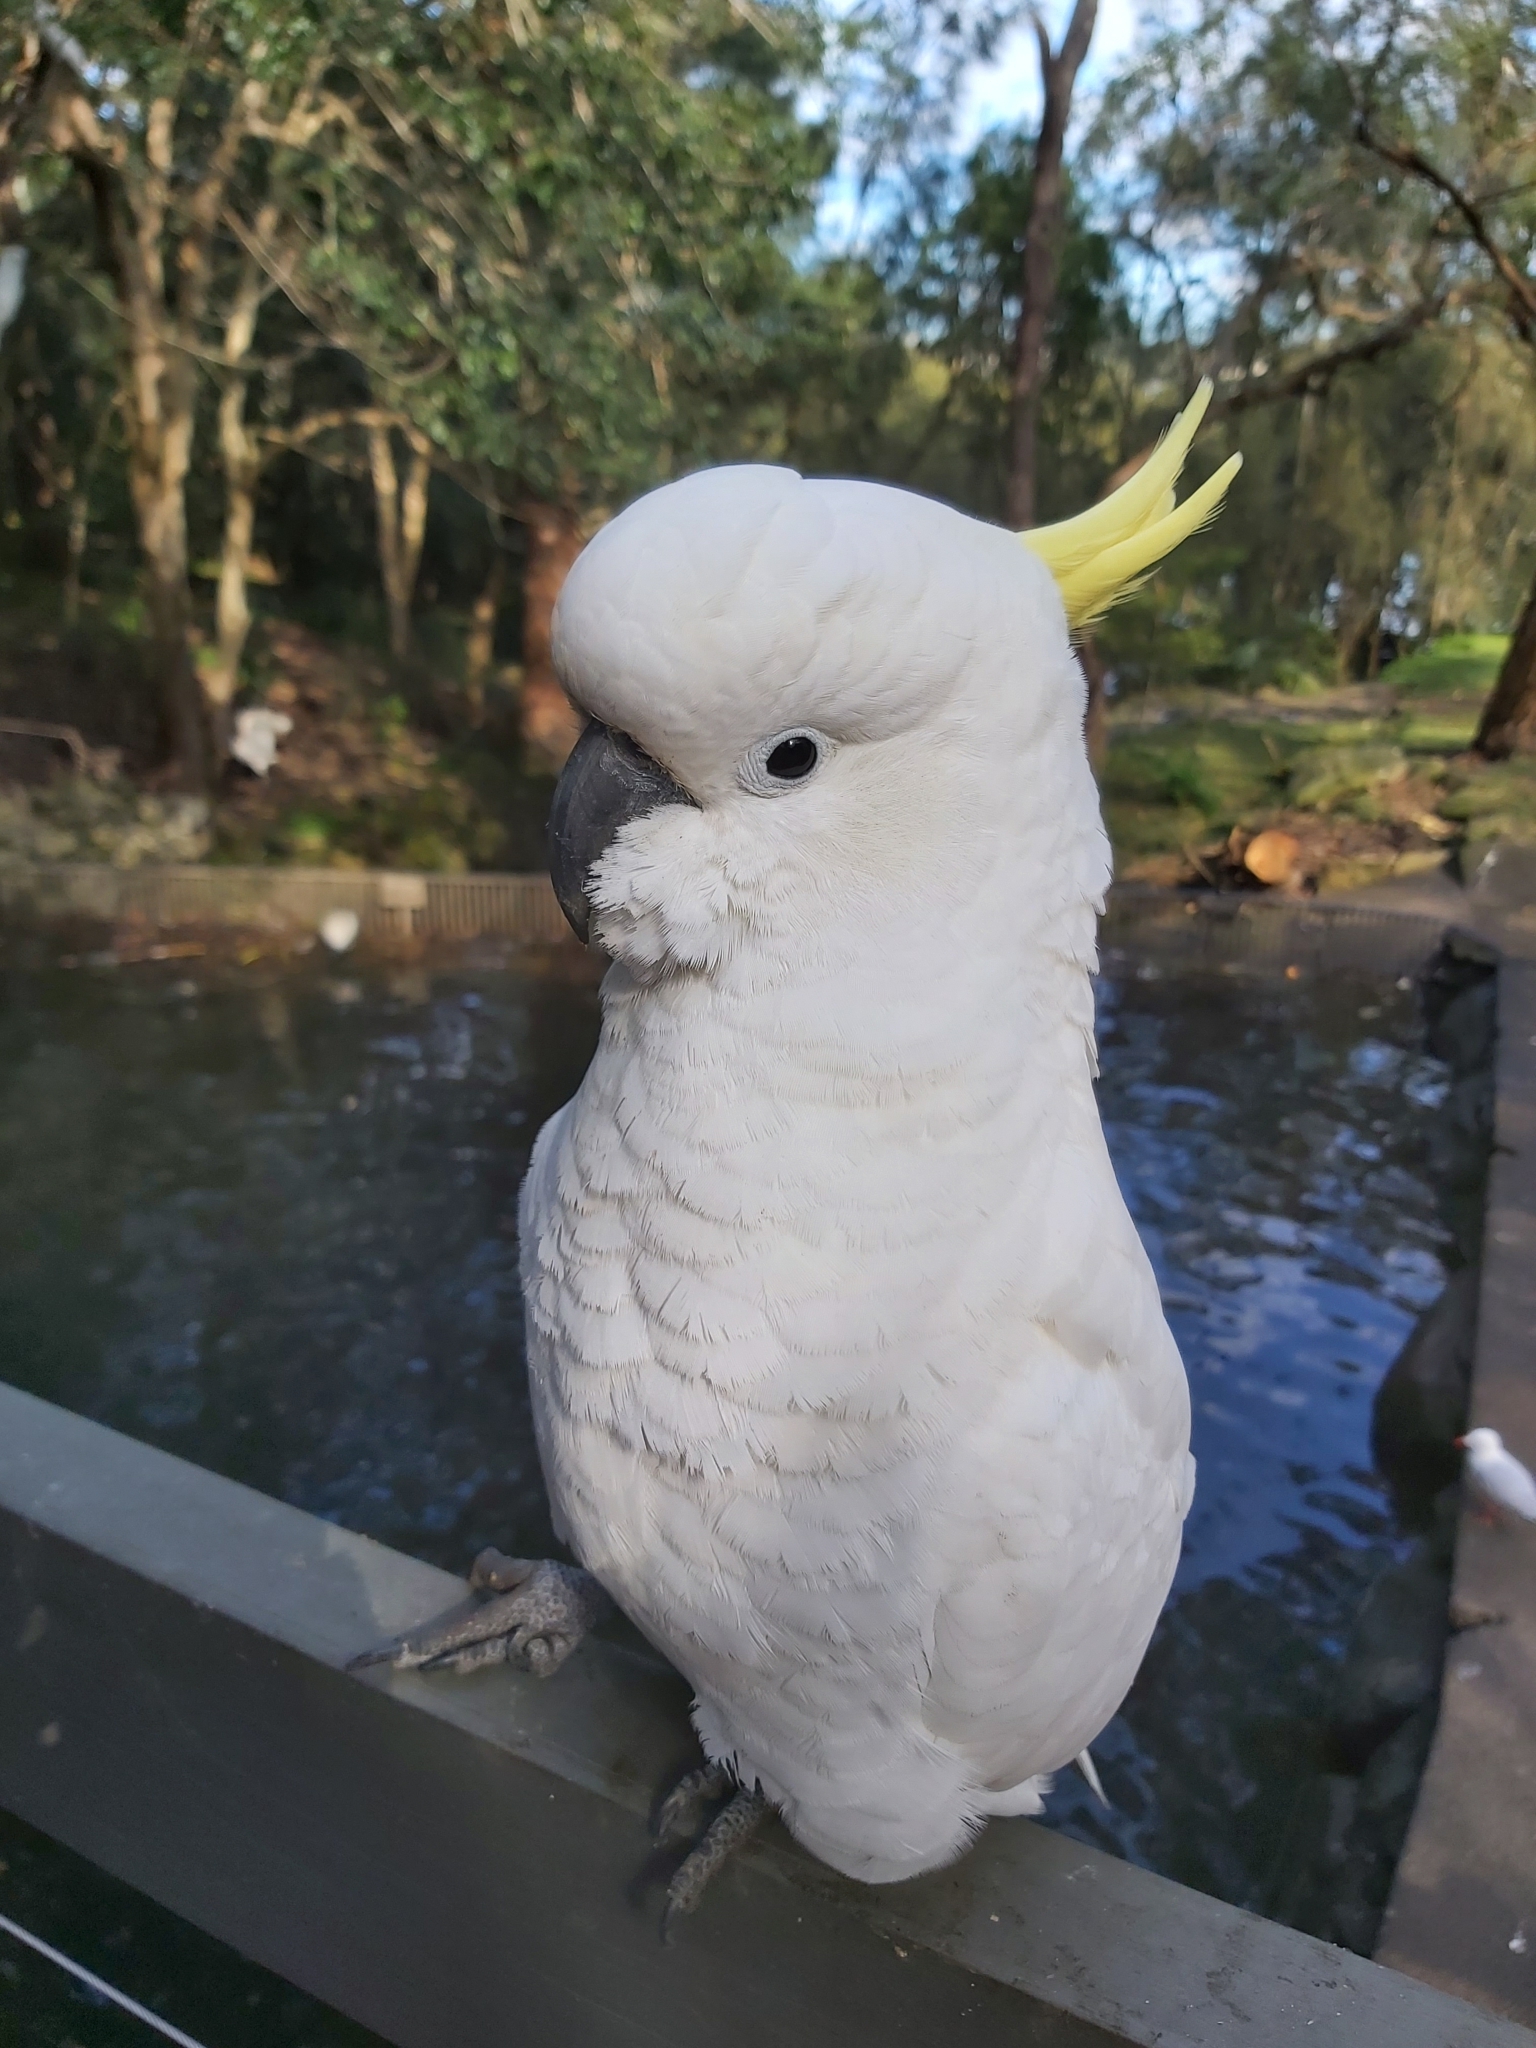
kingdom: Animalia
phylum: Chordata
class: Aves
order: Psittaciformes
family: Psittacidae
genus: Cacatua
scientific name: Cacatua galerita
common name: Sulphur-crested cockatoo
